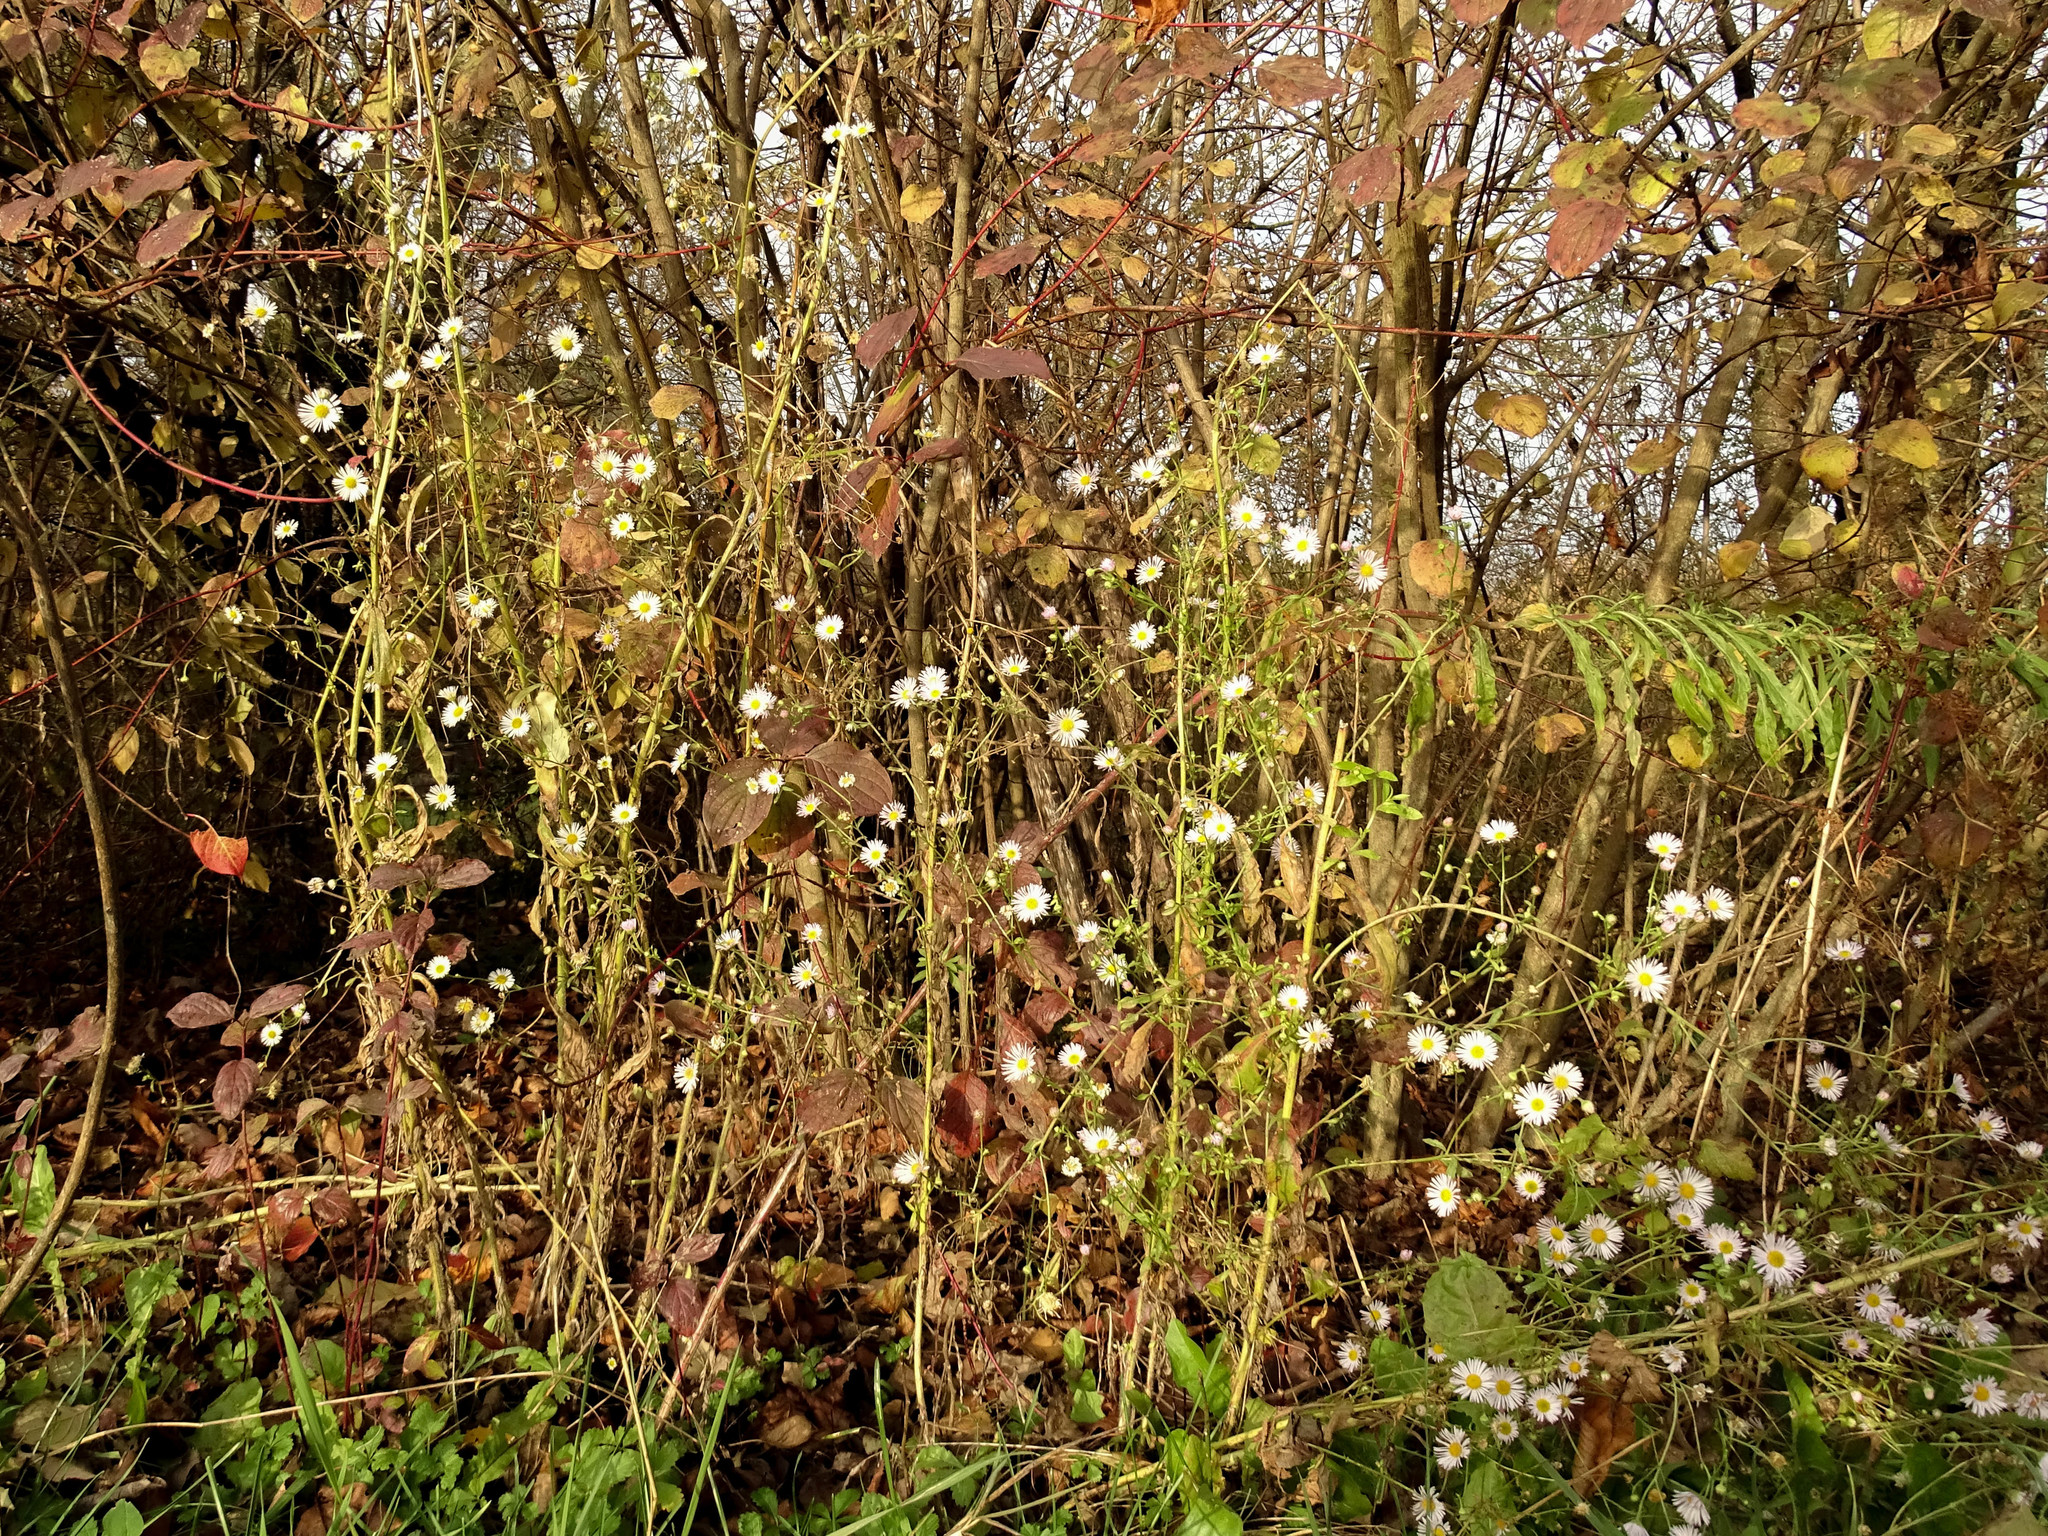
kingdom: Plantae
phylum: Tracheophyta
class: Magnoliopsida
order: Asterales
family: Asteraceae
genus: Erigeron
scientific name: Erigeron annuus
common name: Tall fleabane
